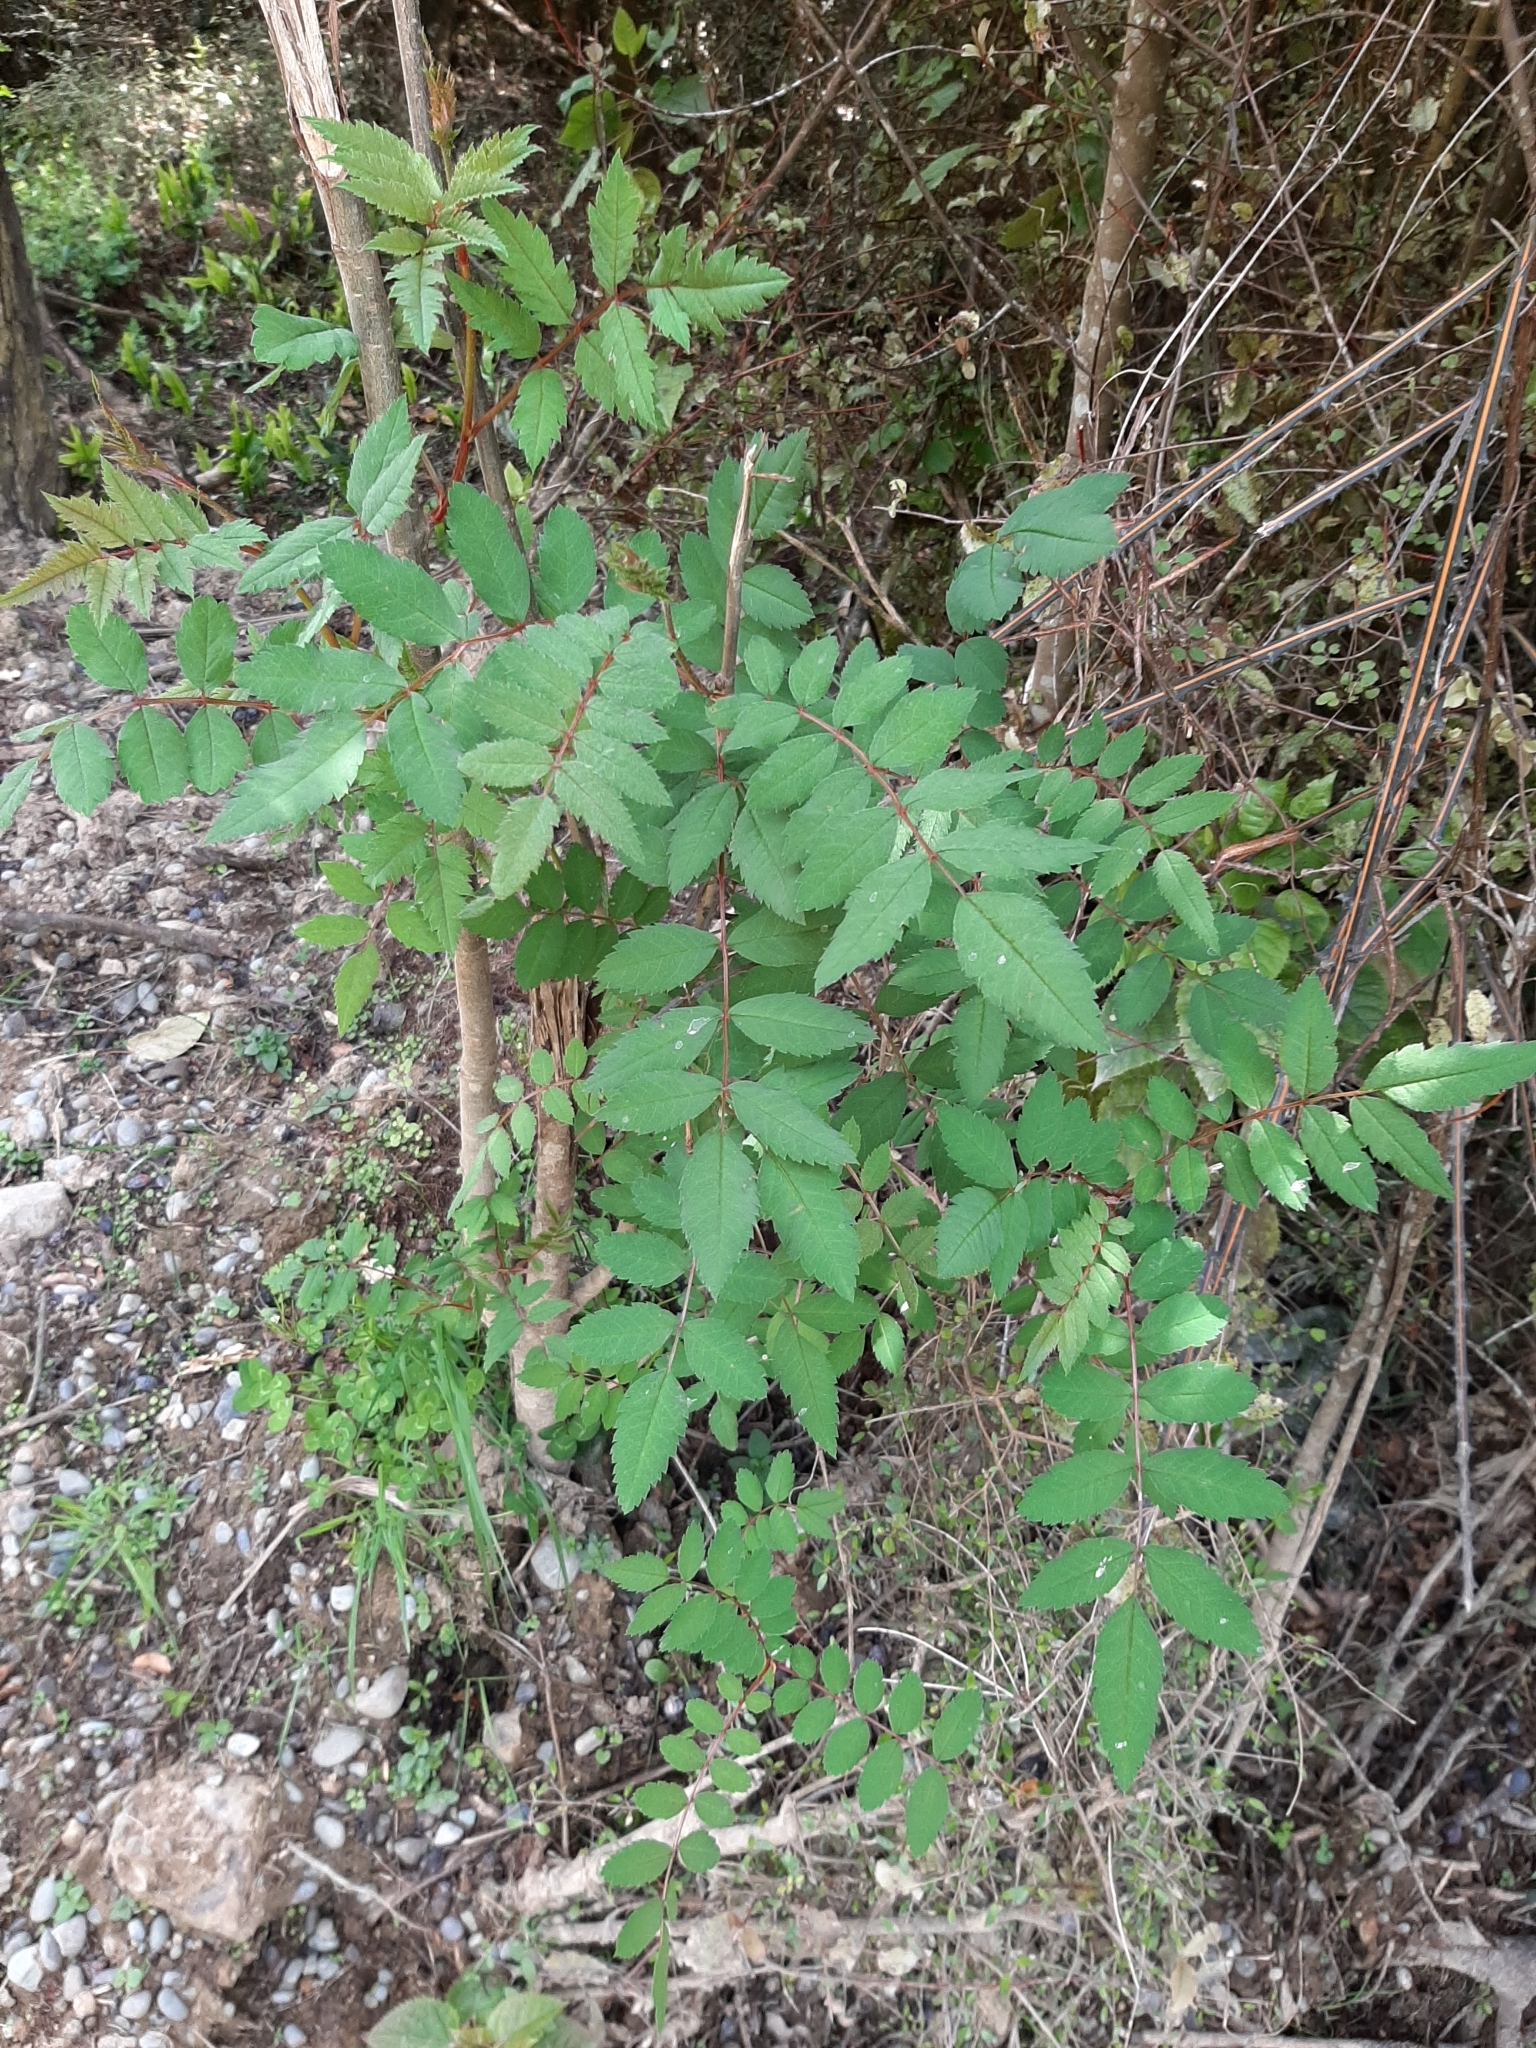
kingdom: Plantae
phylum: Tracheophyta
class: Magnoliopsida
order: Rosales
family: Rosaceae
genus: Sorbus
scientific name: Sorbus aucuparia
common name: Rowan
